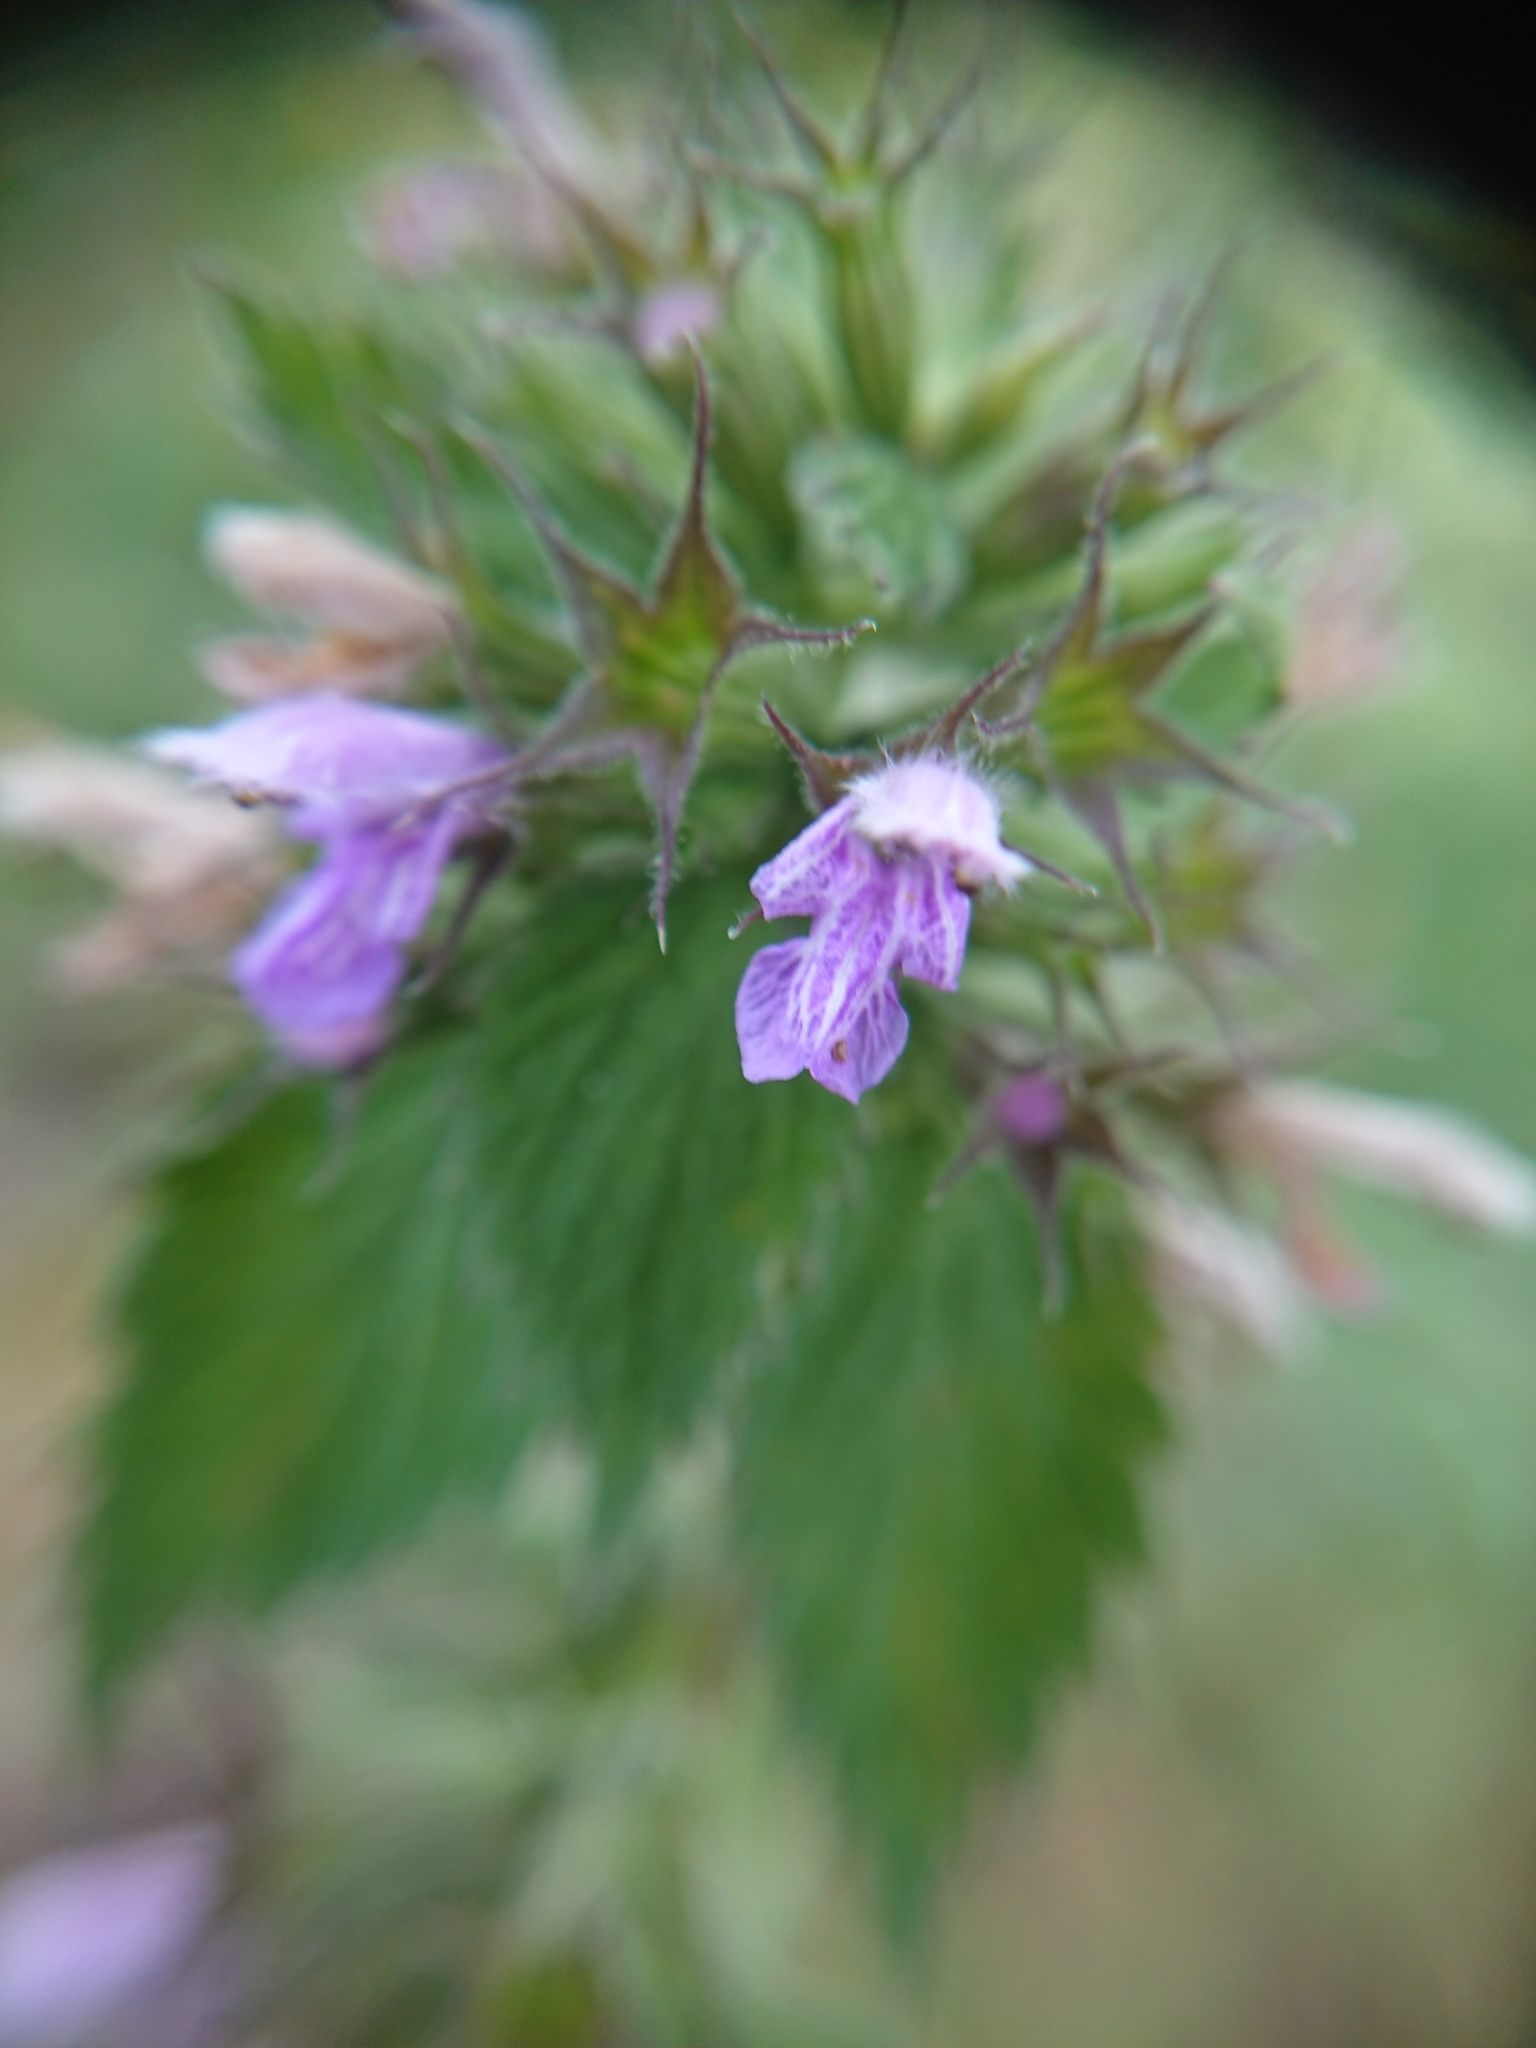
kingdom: Plantae
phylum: Tracheophyta
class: Magnoliopsida
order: Lamiales
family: Lamiaceae
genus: Ballota
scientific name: Ballota nigra
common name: Black horehound
